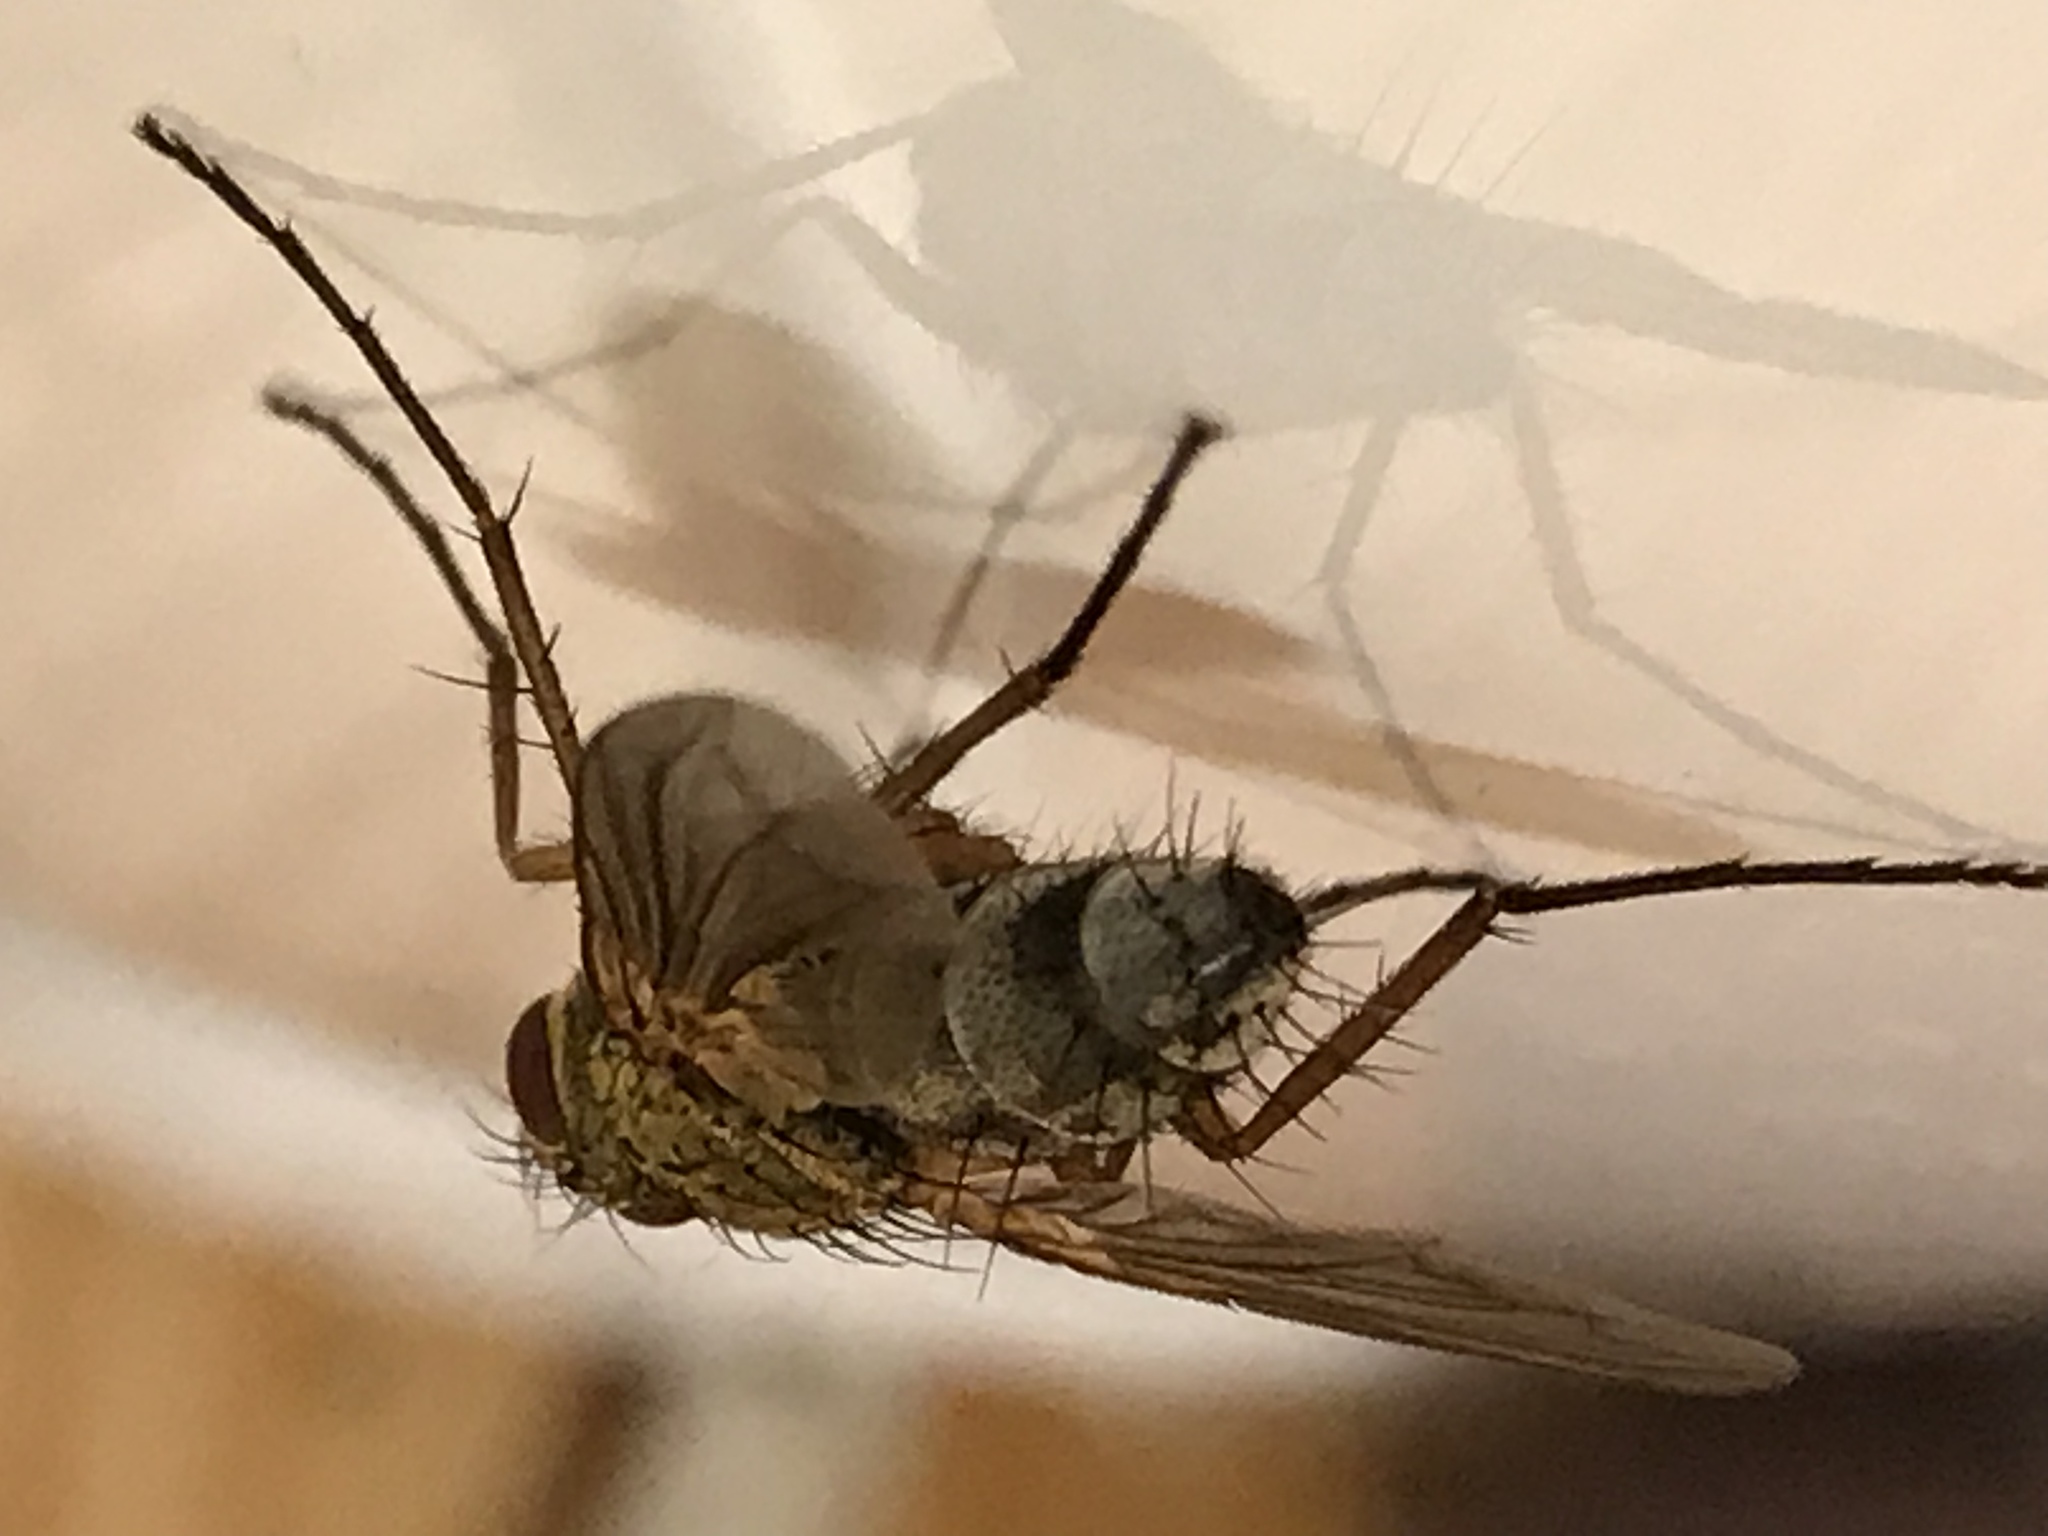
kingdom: Animalia
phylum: Arthropoda
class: Insecta
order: Diptera
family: Tachinidae
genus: Dexiosoma
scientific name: Dexiosoma caninum
